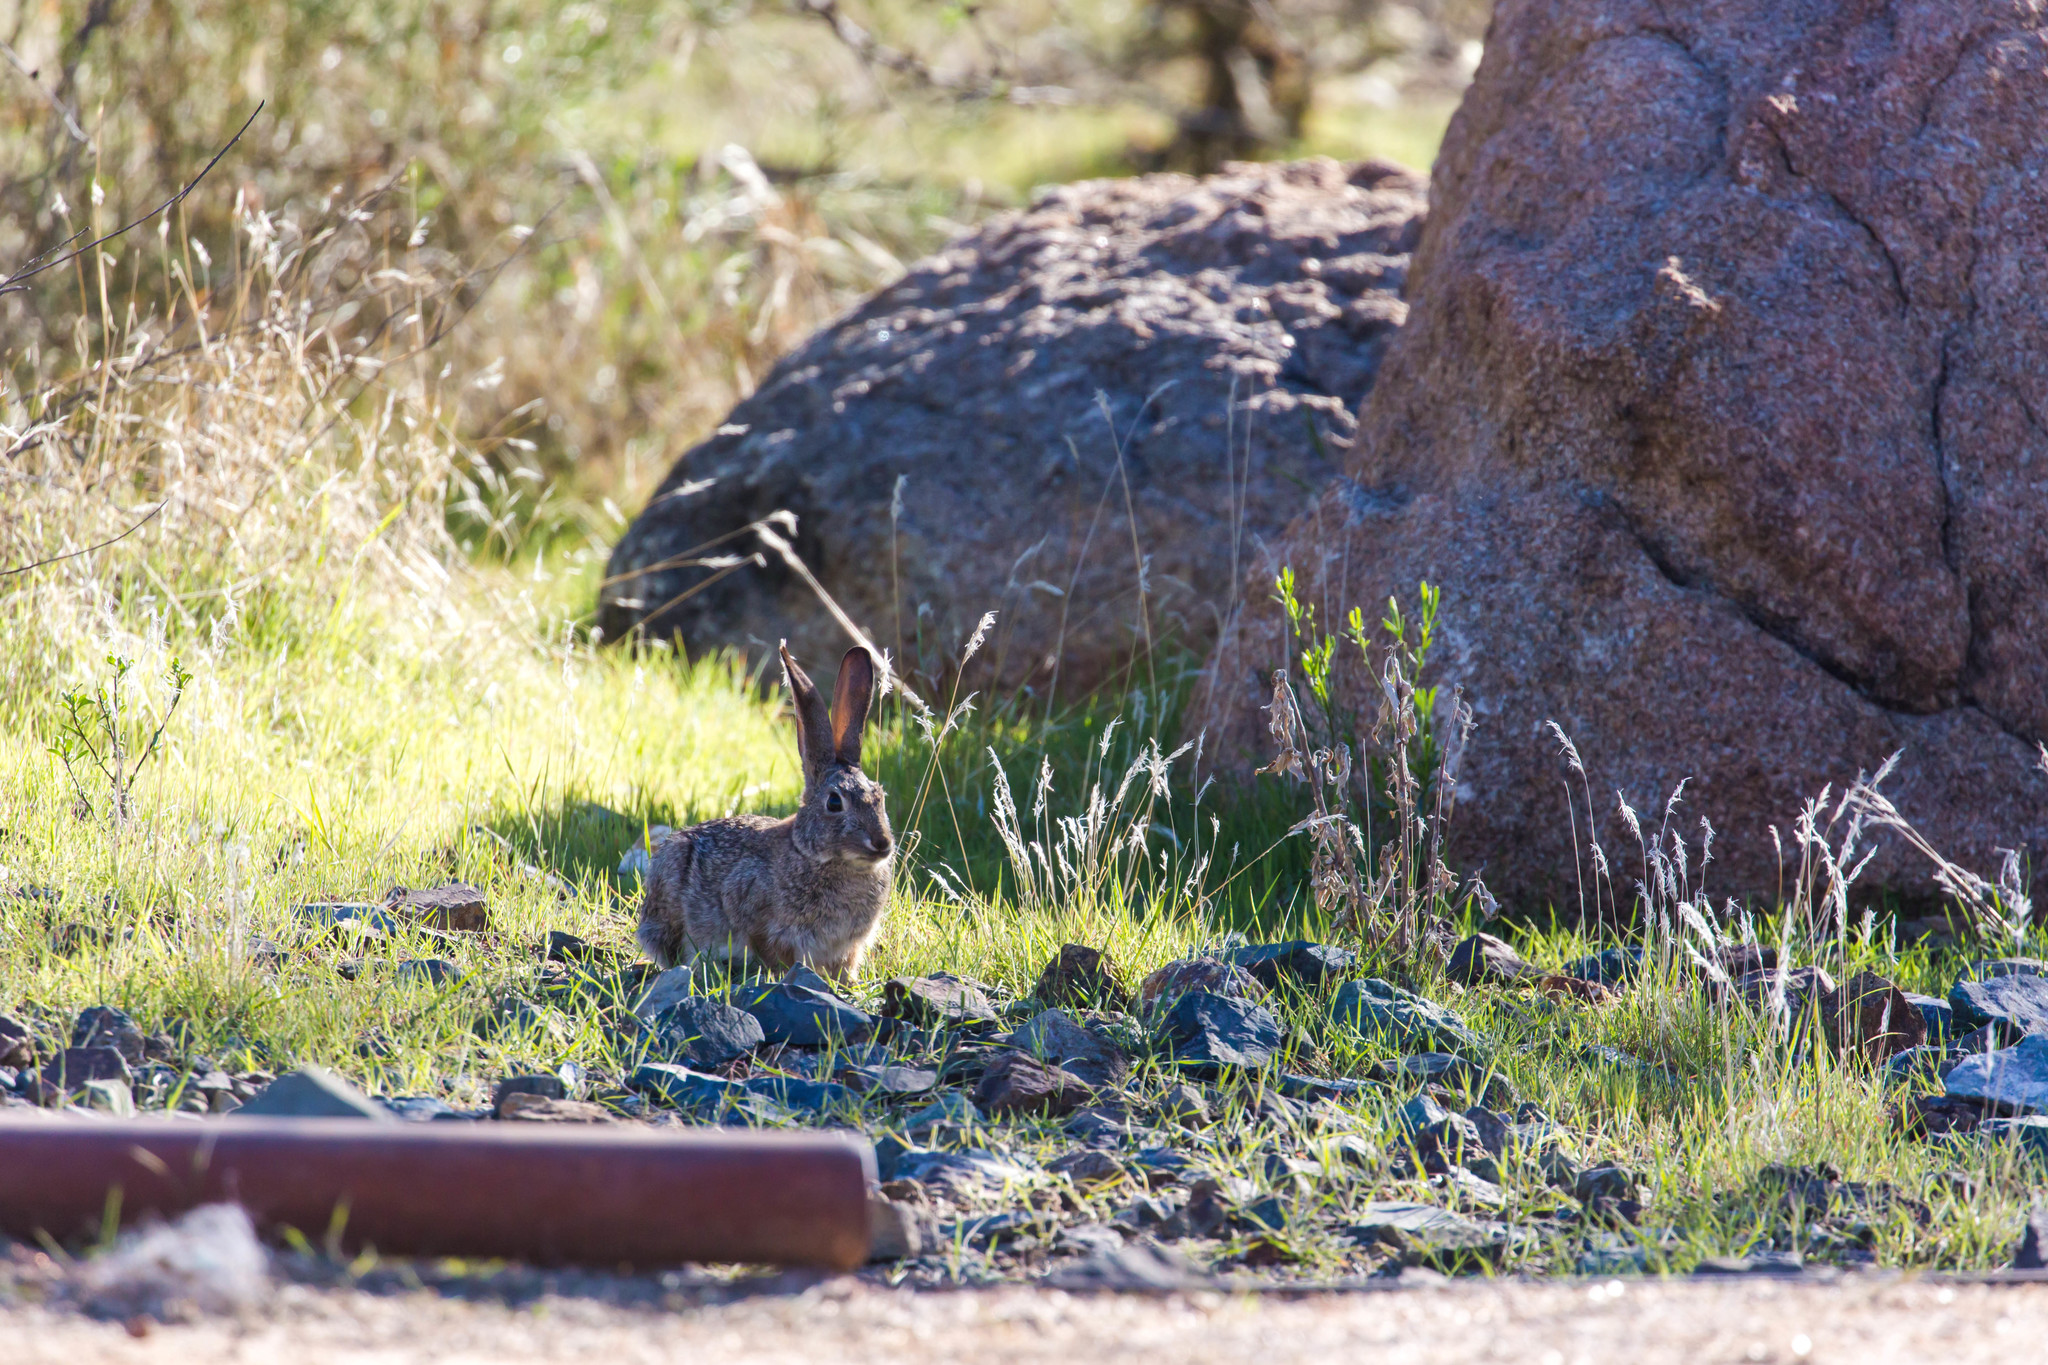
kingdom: Animalia
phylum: Chordata
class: Mammalia
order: Lagomorpha
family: Leporidae
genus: Sylvilagus
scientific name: Sylvilagus audubonii
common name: Desert cottontail
